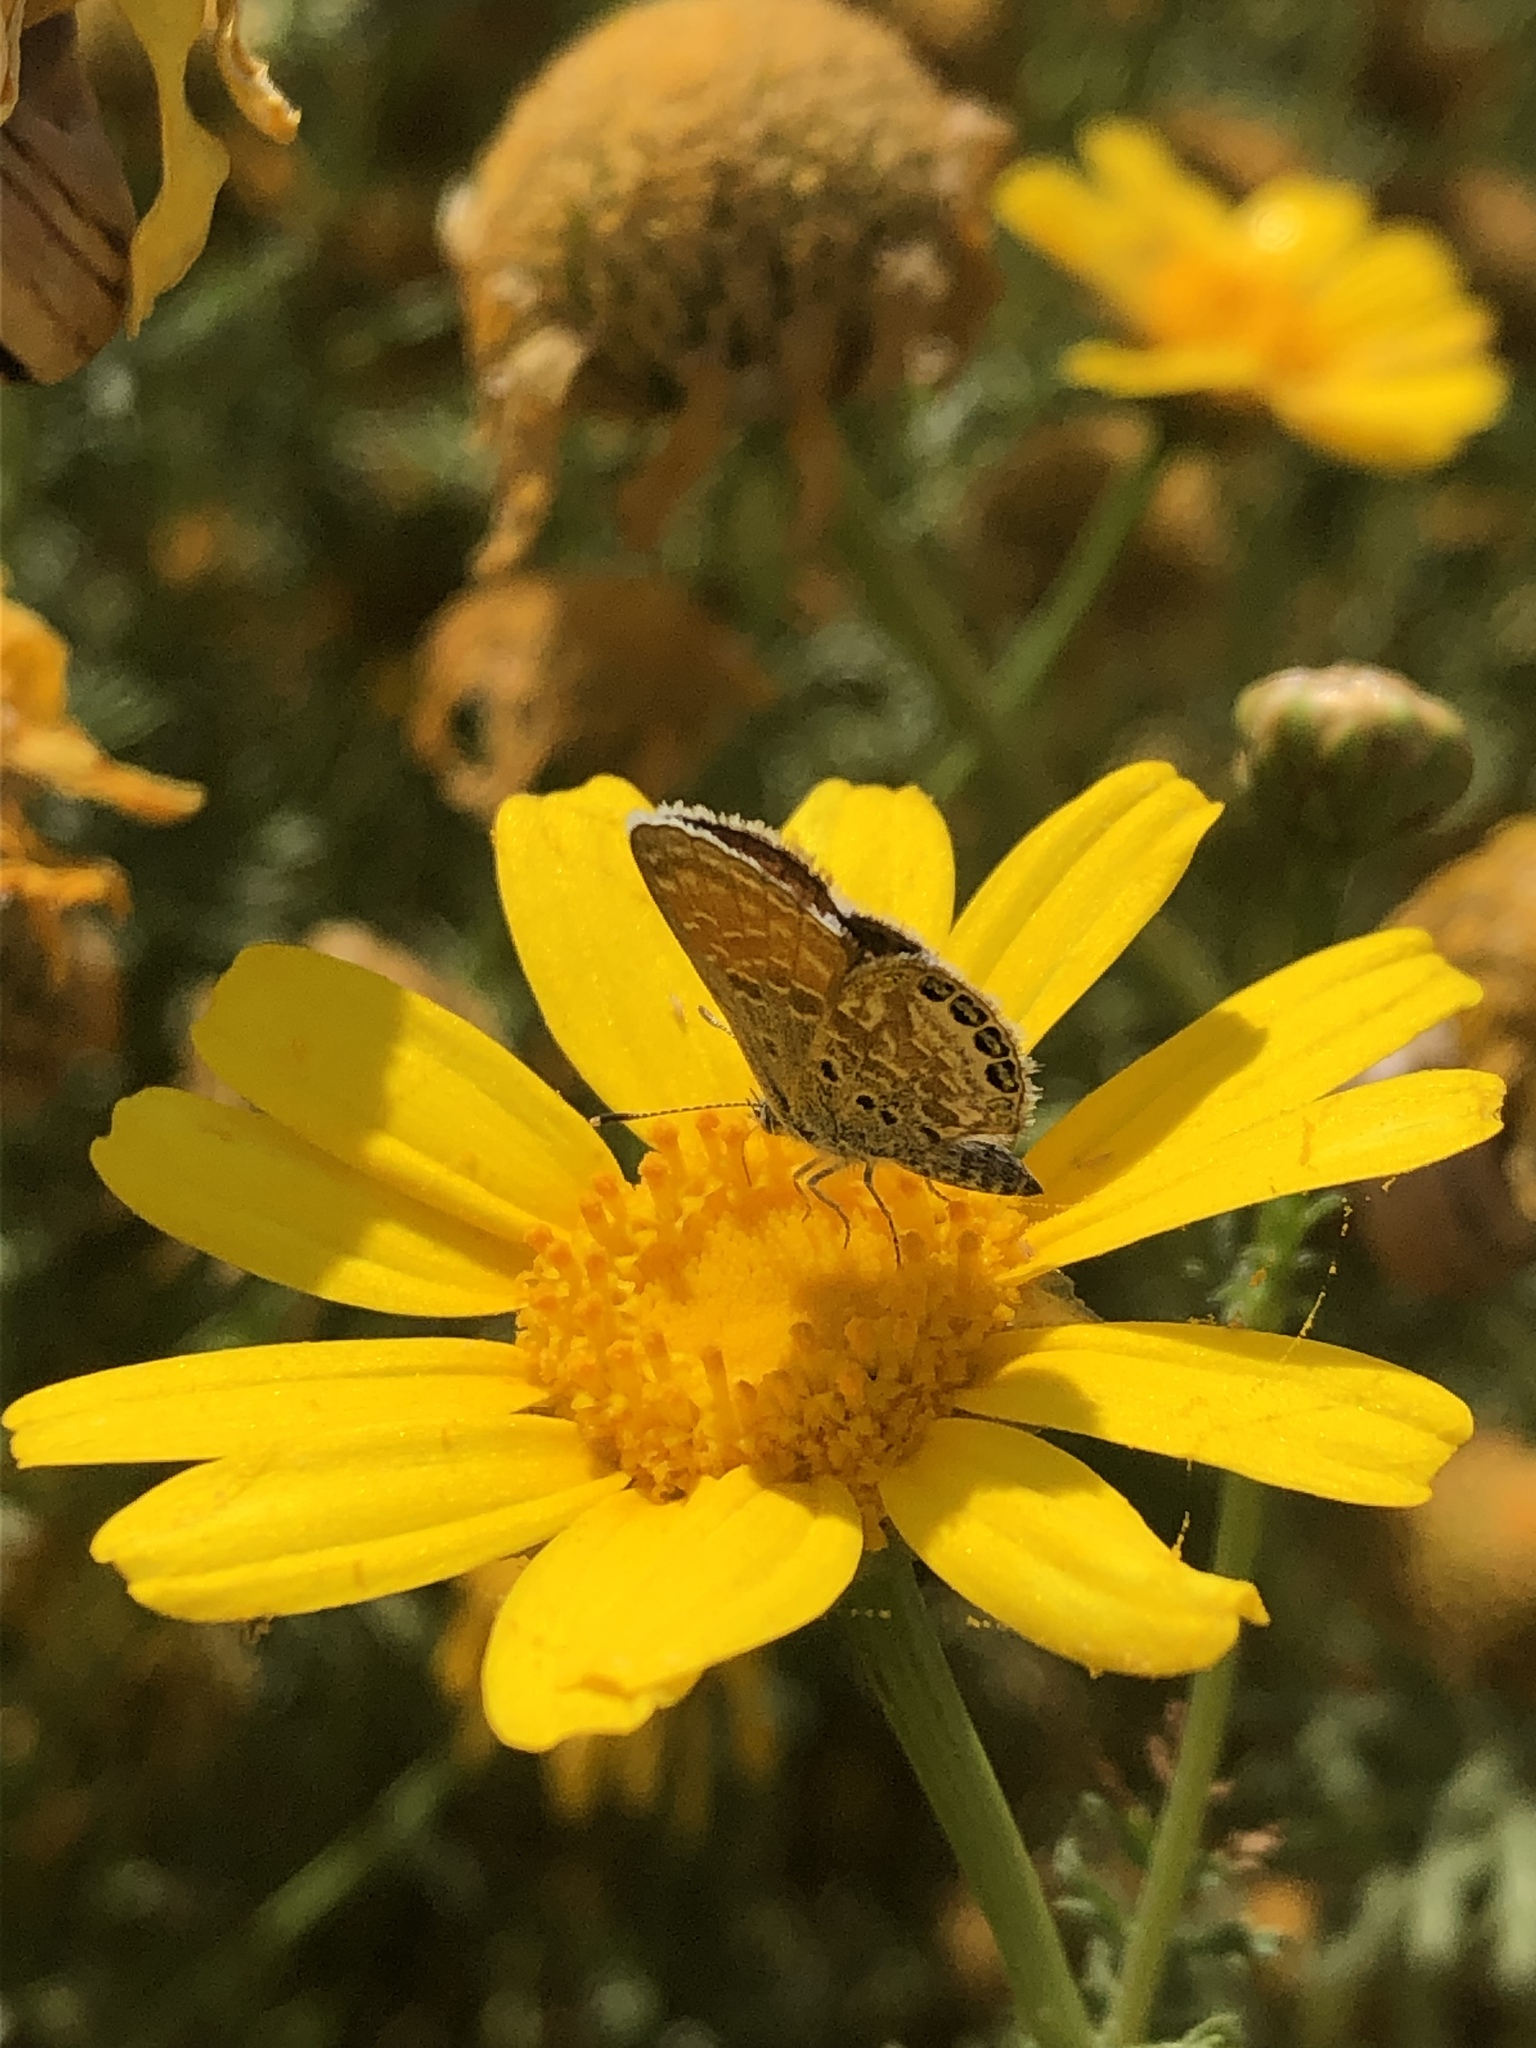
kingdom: Animalia
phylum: Arthropoda
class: Insecta
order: Lepidoptera
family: Lycaenidae
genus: Brephidium
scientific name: Brephidium exilis
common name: Pygmy blue
